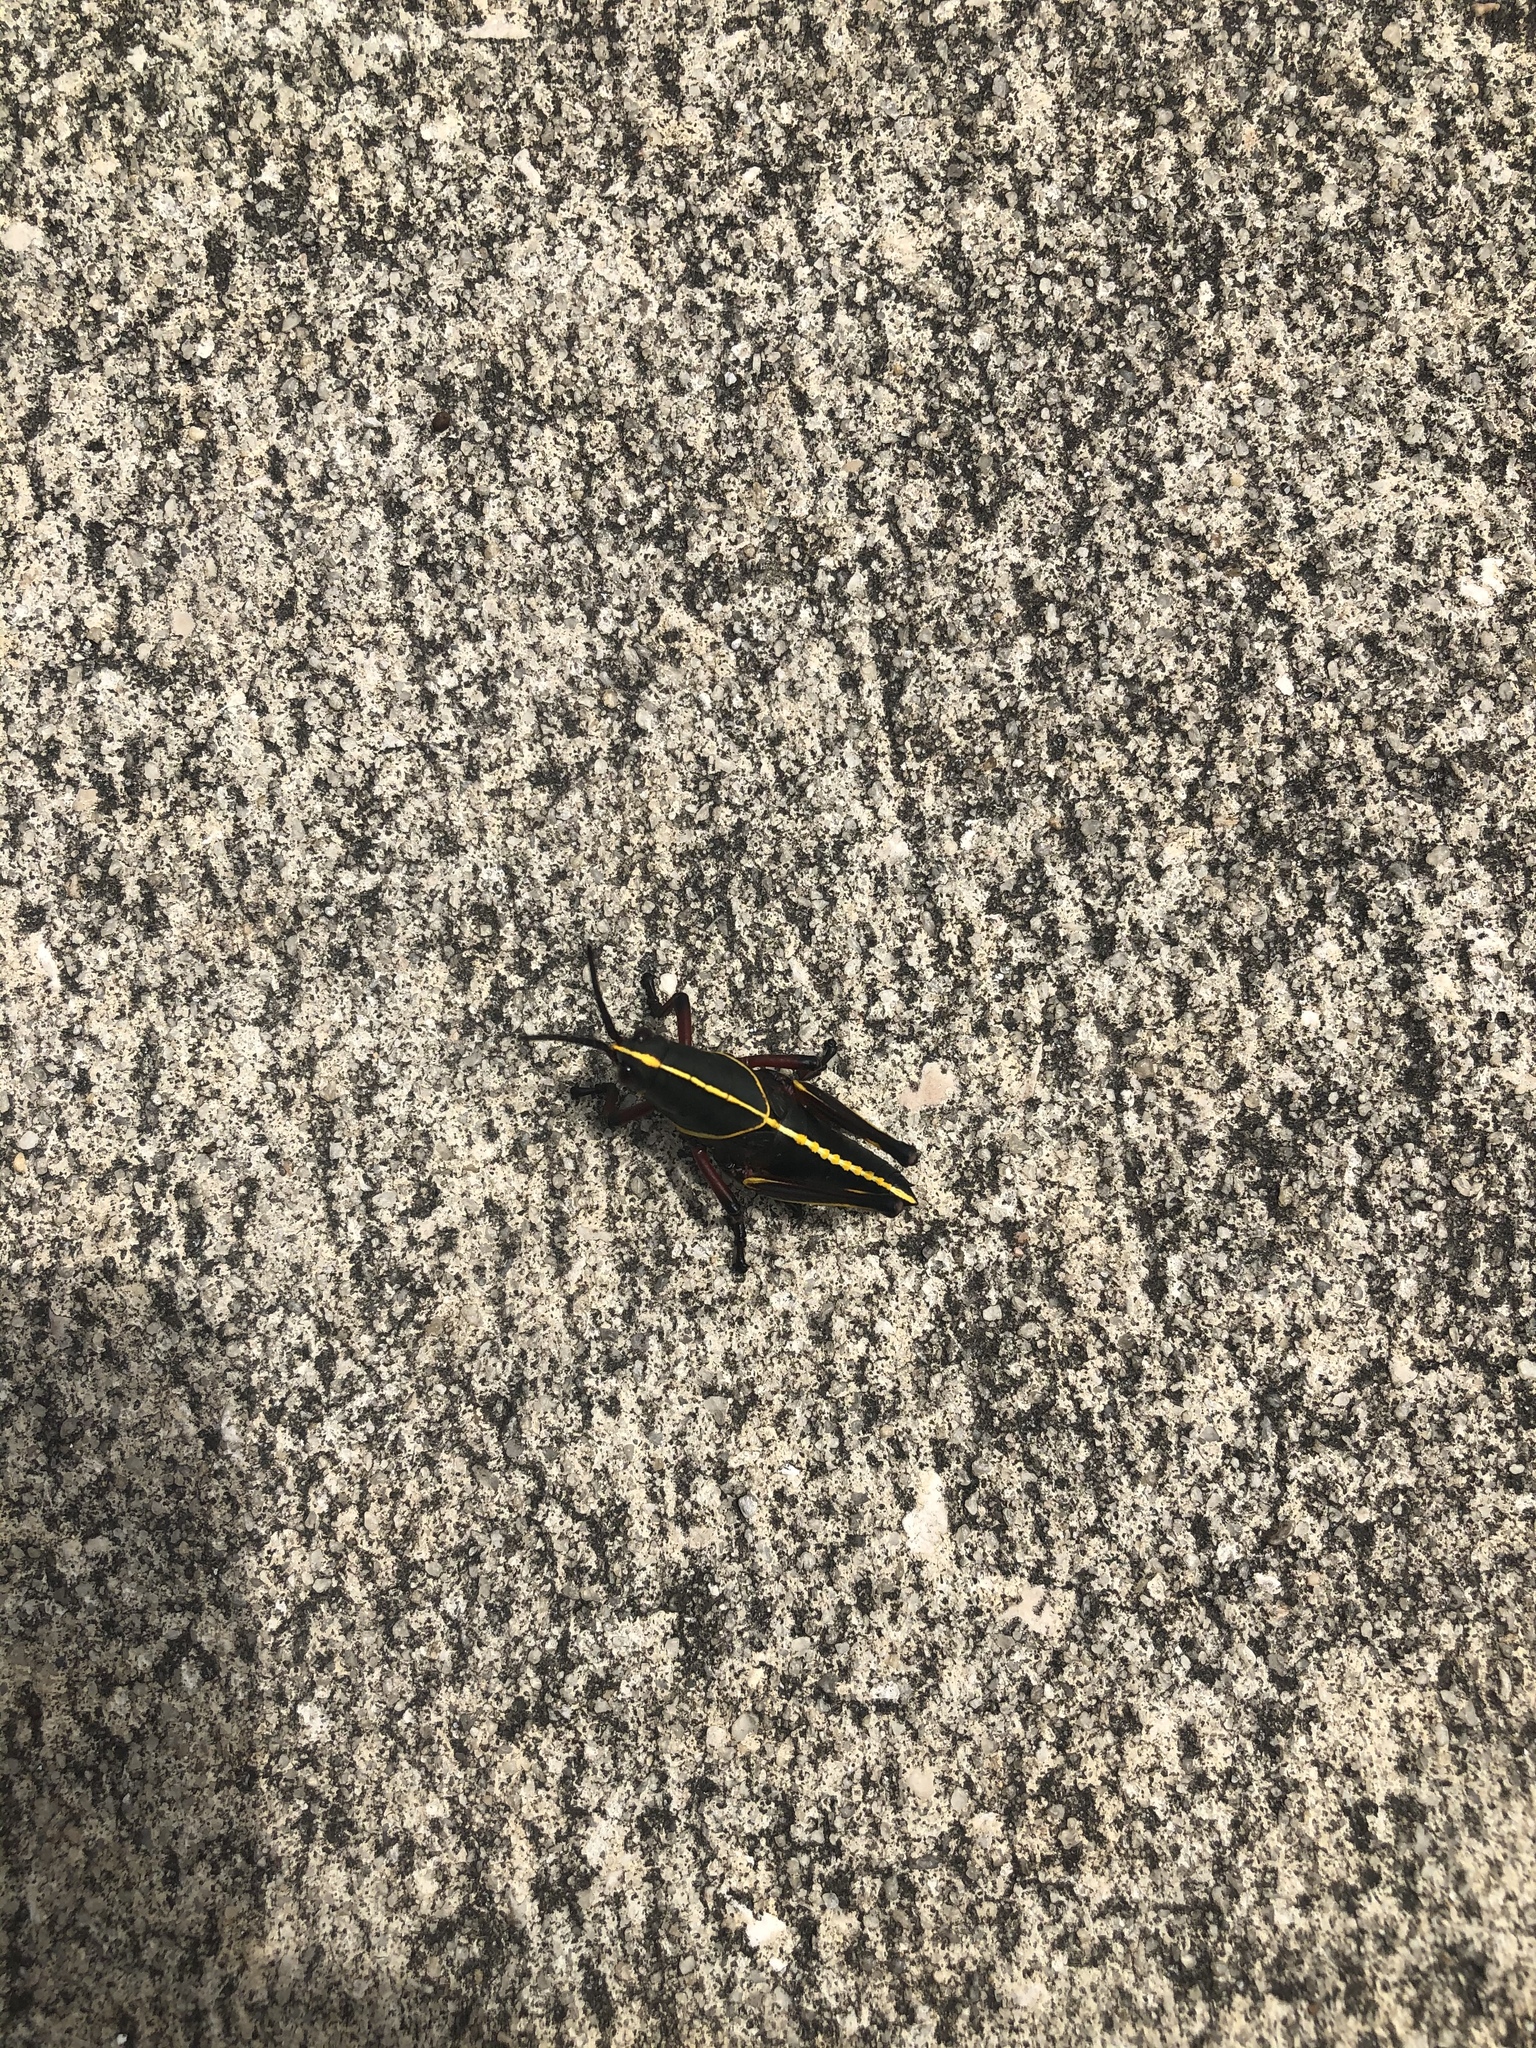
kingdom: Animalia
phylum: Arthropoda
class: Insecta
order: Orthoptera
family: Romaleidae
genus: Romalea
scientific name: Romalea microptera
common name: Eastern lubber grasshopper
